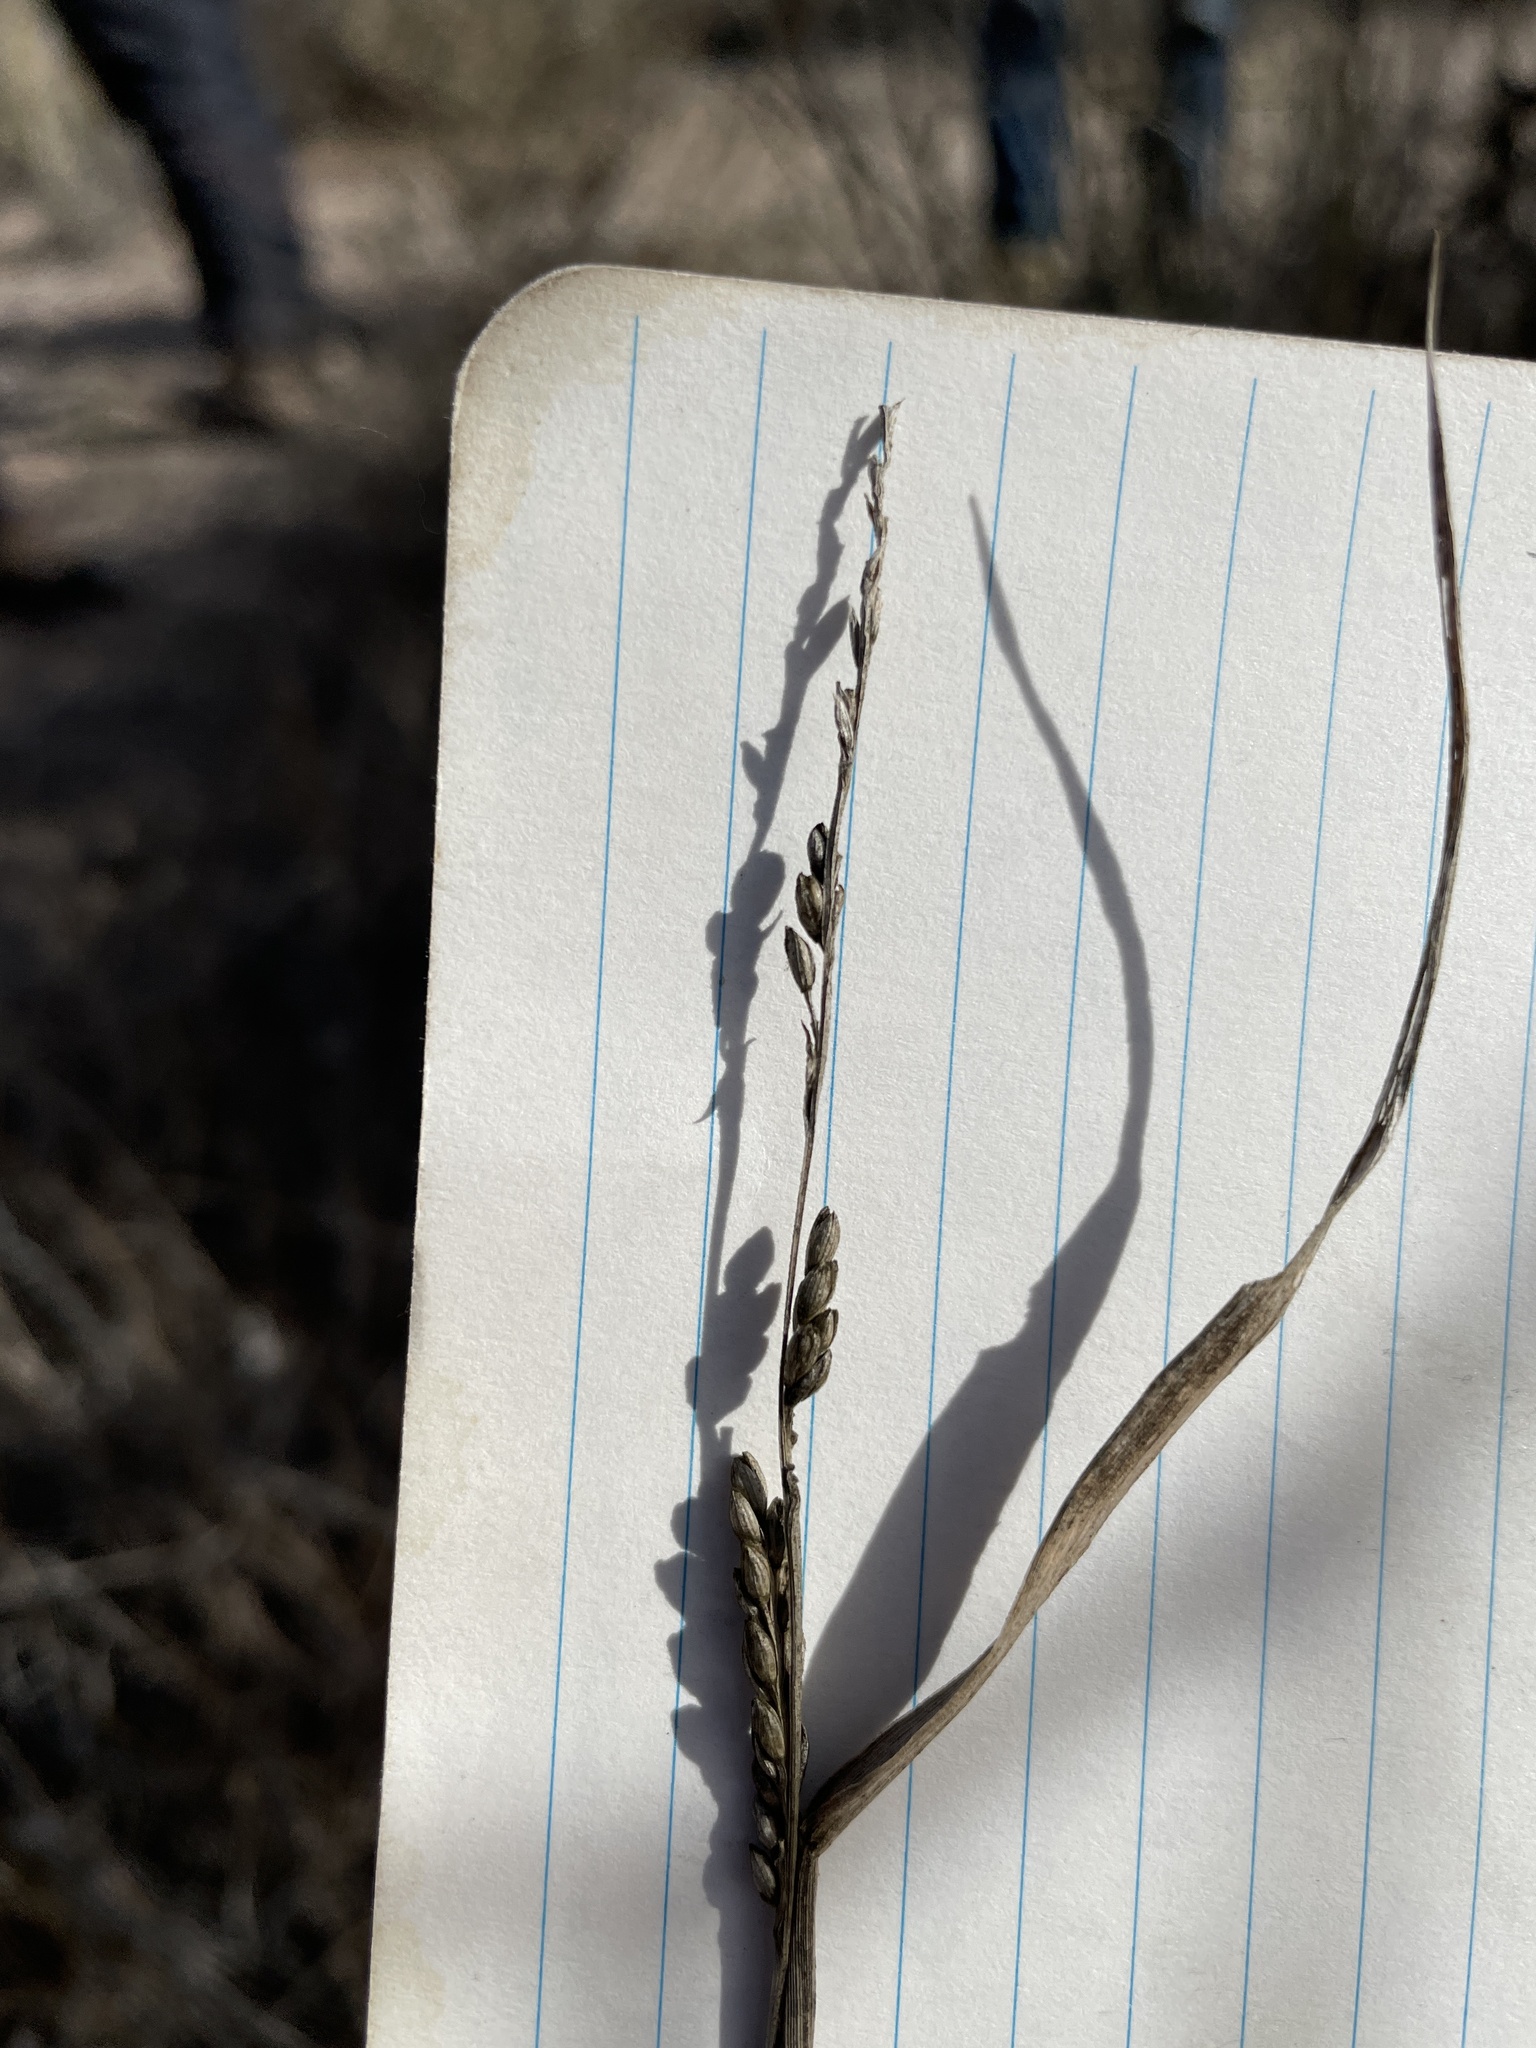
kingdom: Plantae
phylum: Tracheophyta
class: Liliopsida
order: Poales
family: Poaceae
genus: Hopia
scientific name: Hopia obtusa
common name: Vine-mesquite
